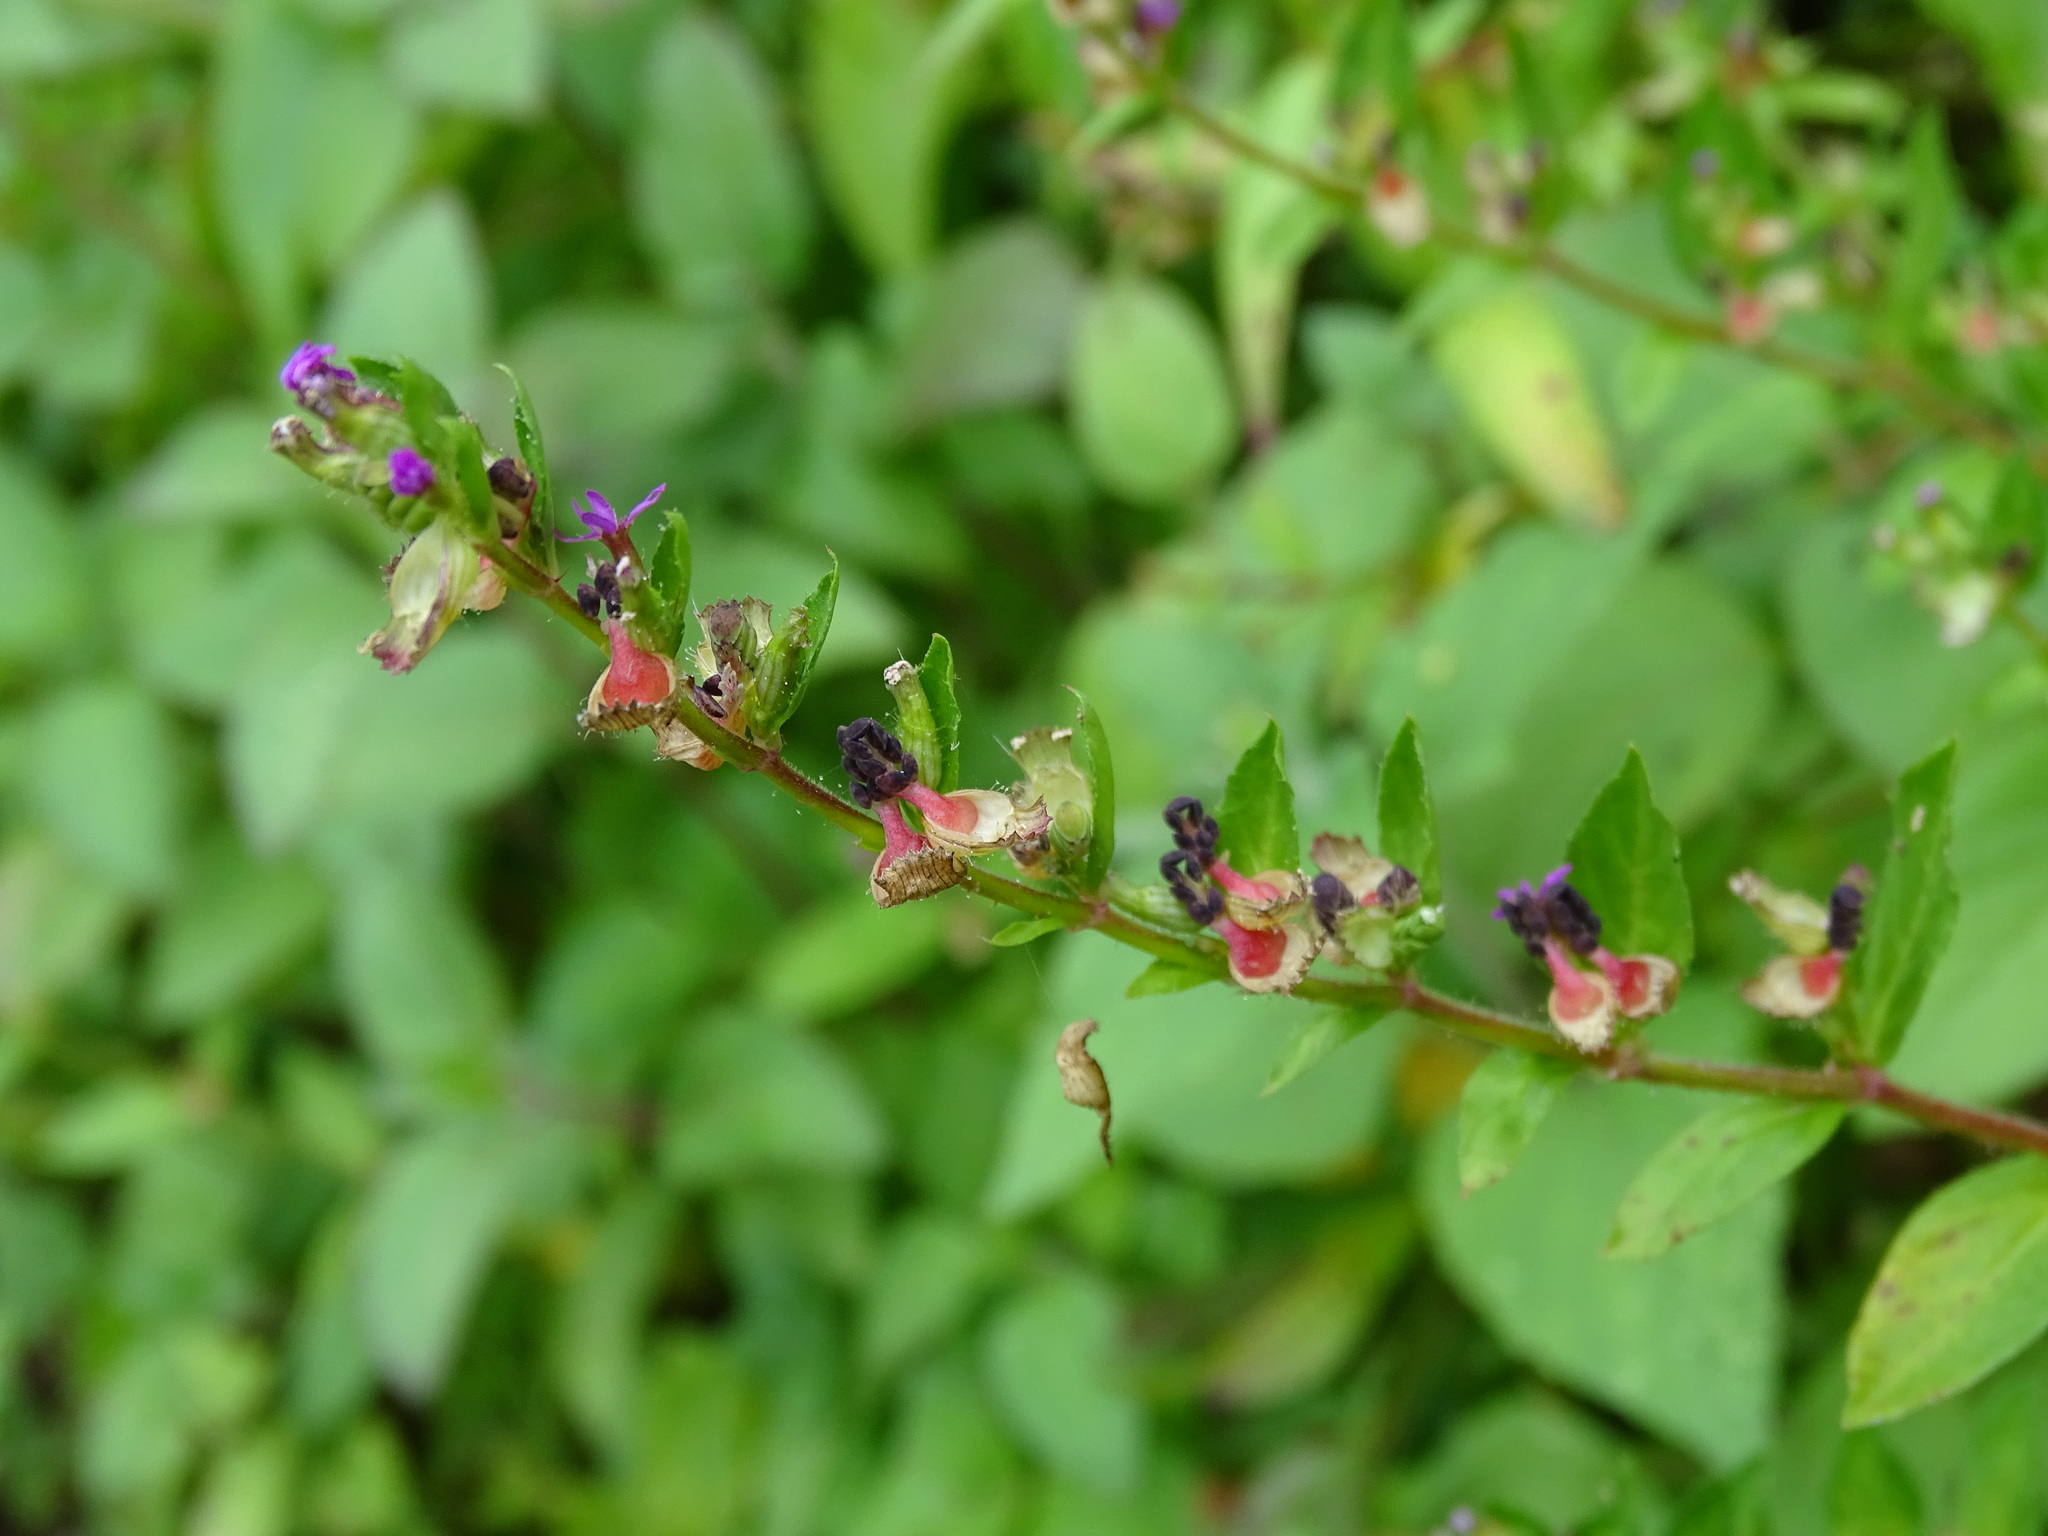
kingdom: Plantae
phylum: Tracheophyta
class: Magnoliopsida
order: Myrtales
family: Lythraceae
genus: Cuphea
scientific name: Cuphea carthagenensis
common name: Colombian waxweed
